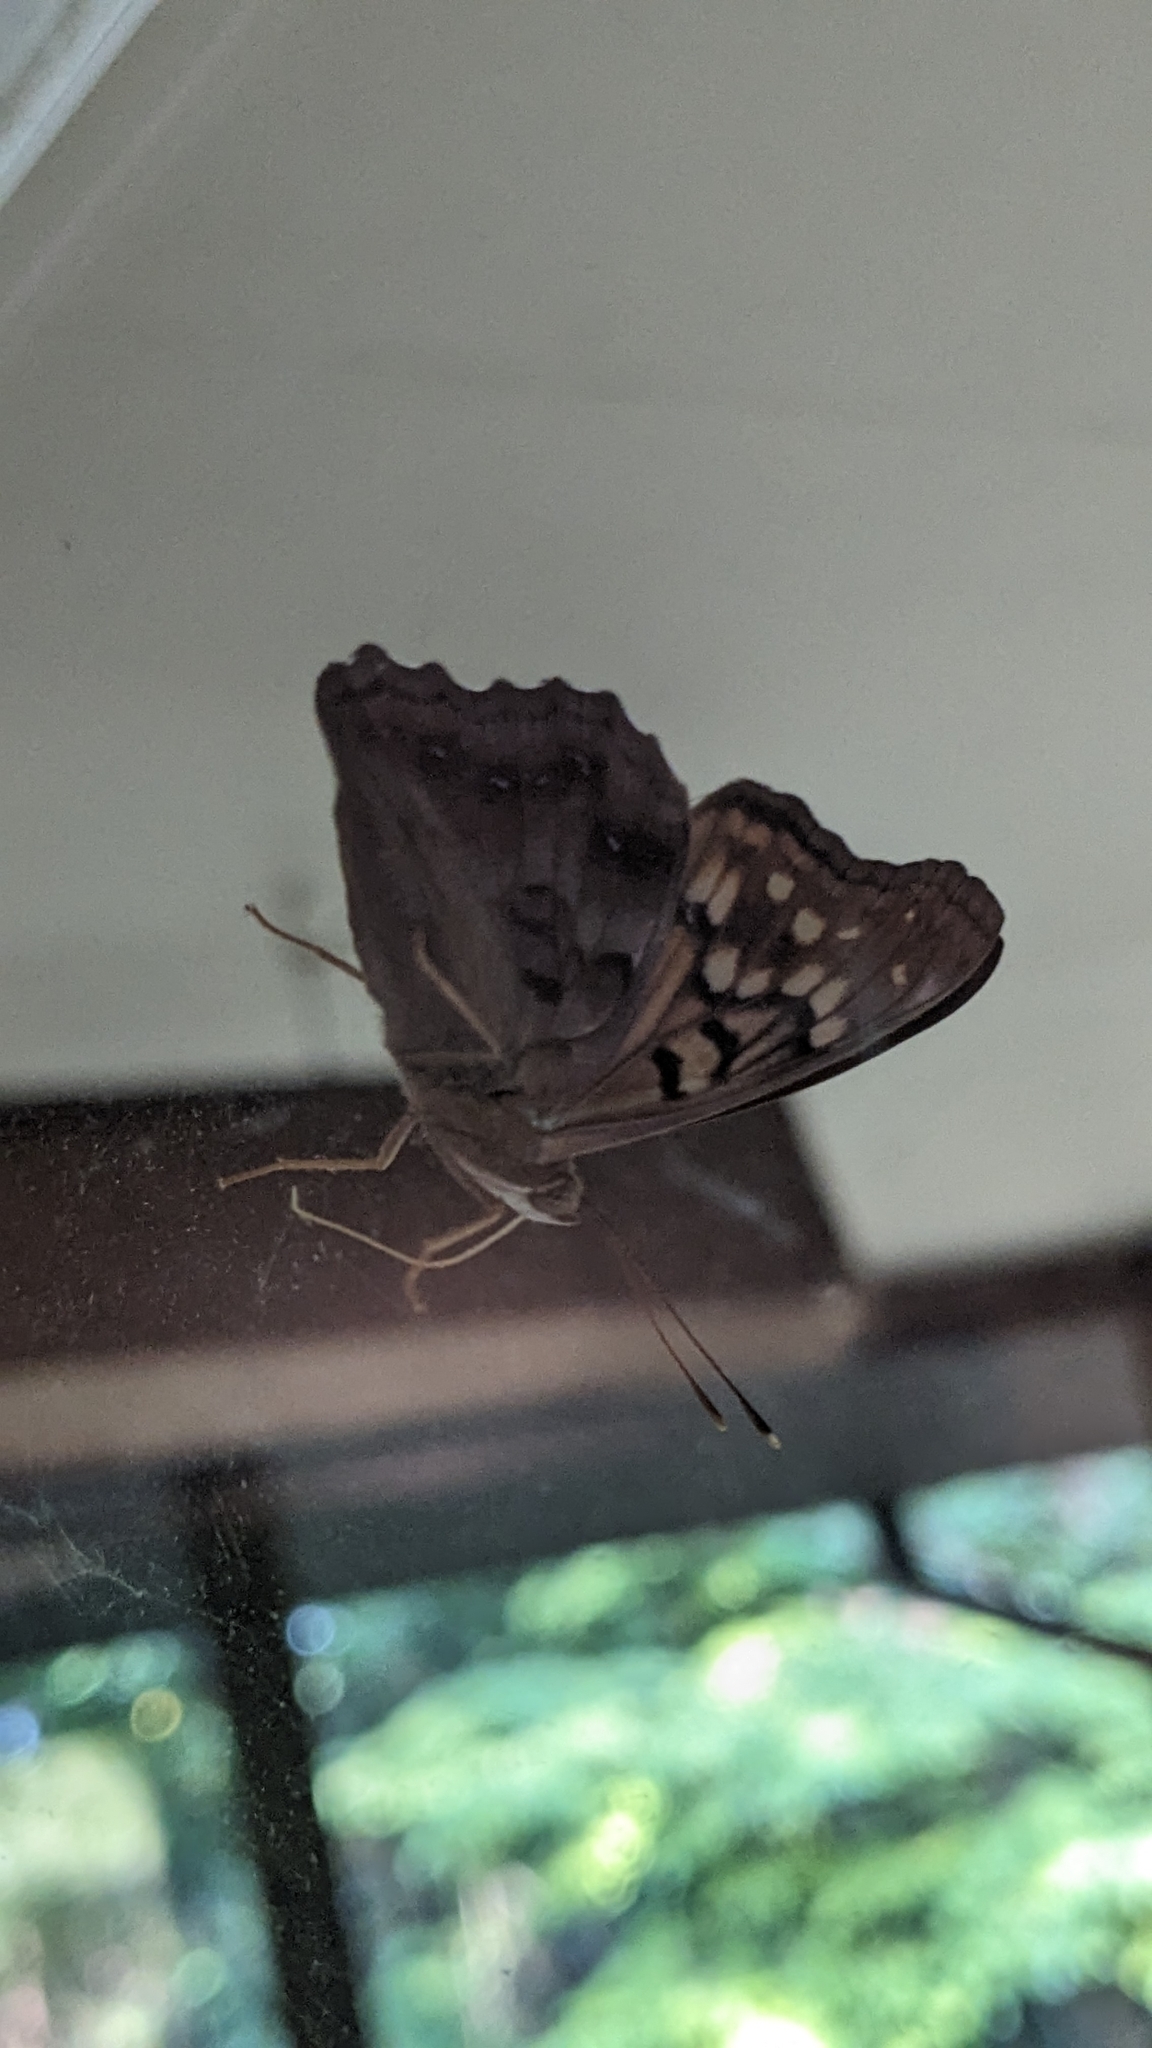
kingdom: Animalia
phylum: Arthropoda
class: Insecta
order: Lepidoptera
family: Nymphalidae
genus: Asterocampa
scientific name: Asterocampa clyton
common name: Tawny emperor
